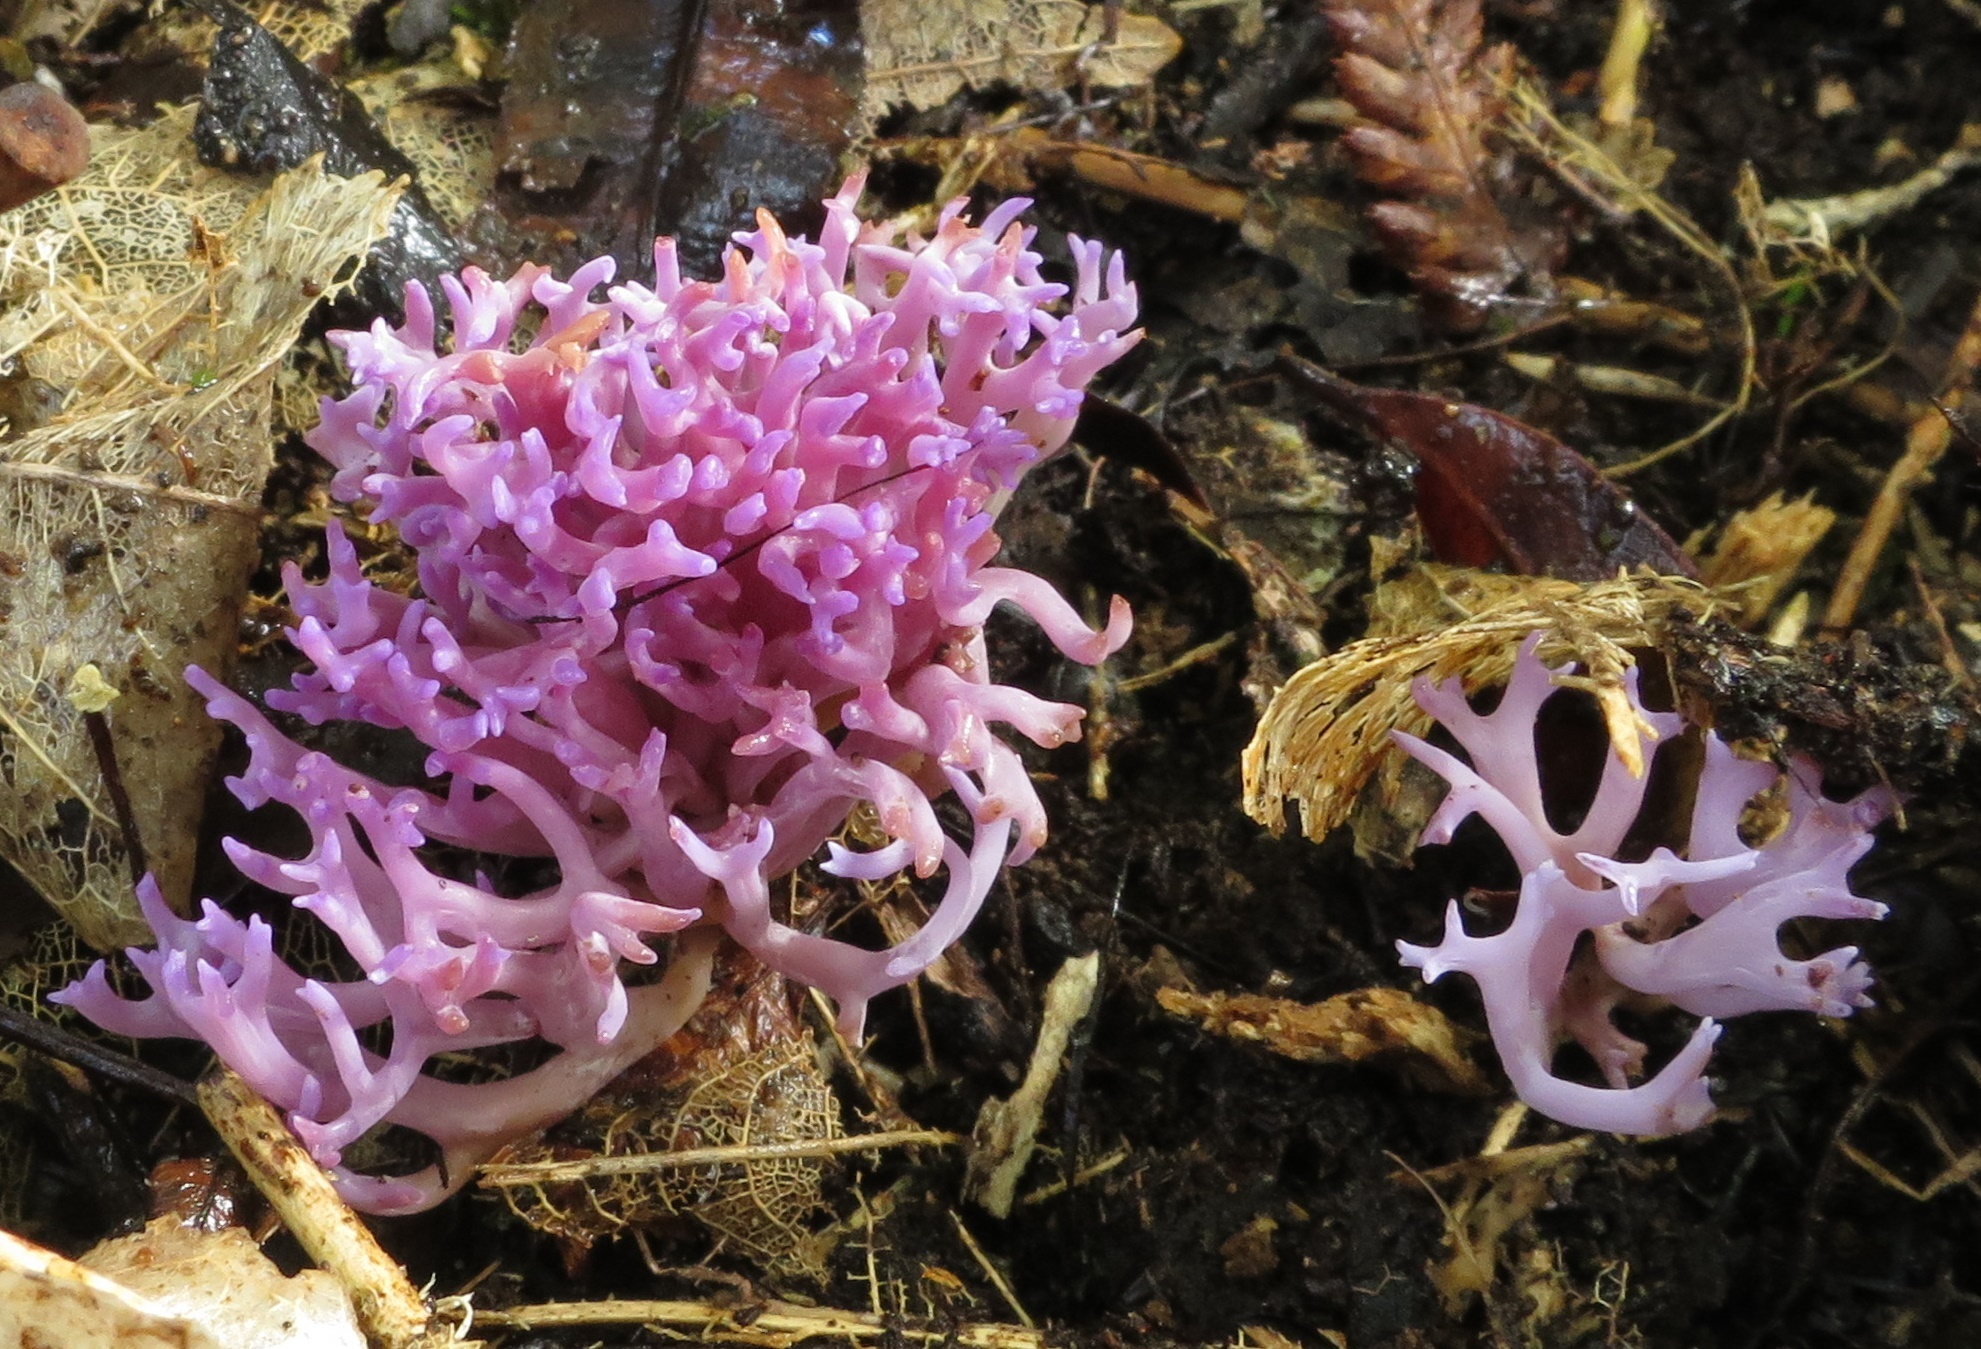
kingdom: Fungi
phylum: Basidiomycota
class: Agaricomycetes
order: Agaricales
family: Clavariaceae
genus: Ramariopsis
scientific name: Ramariopsis pulchella
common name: Lilac coral
